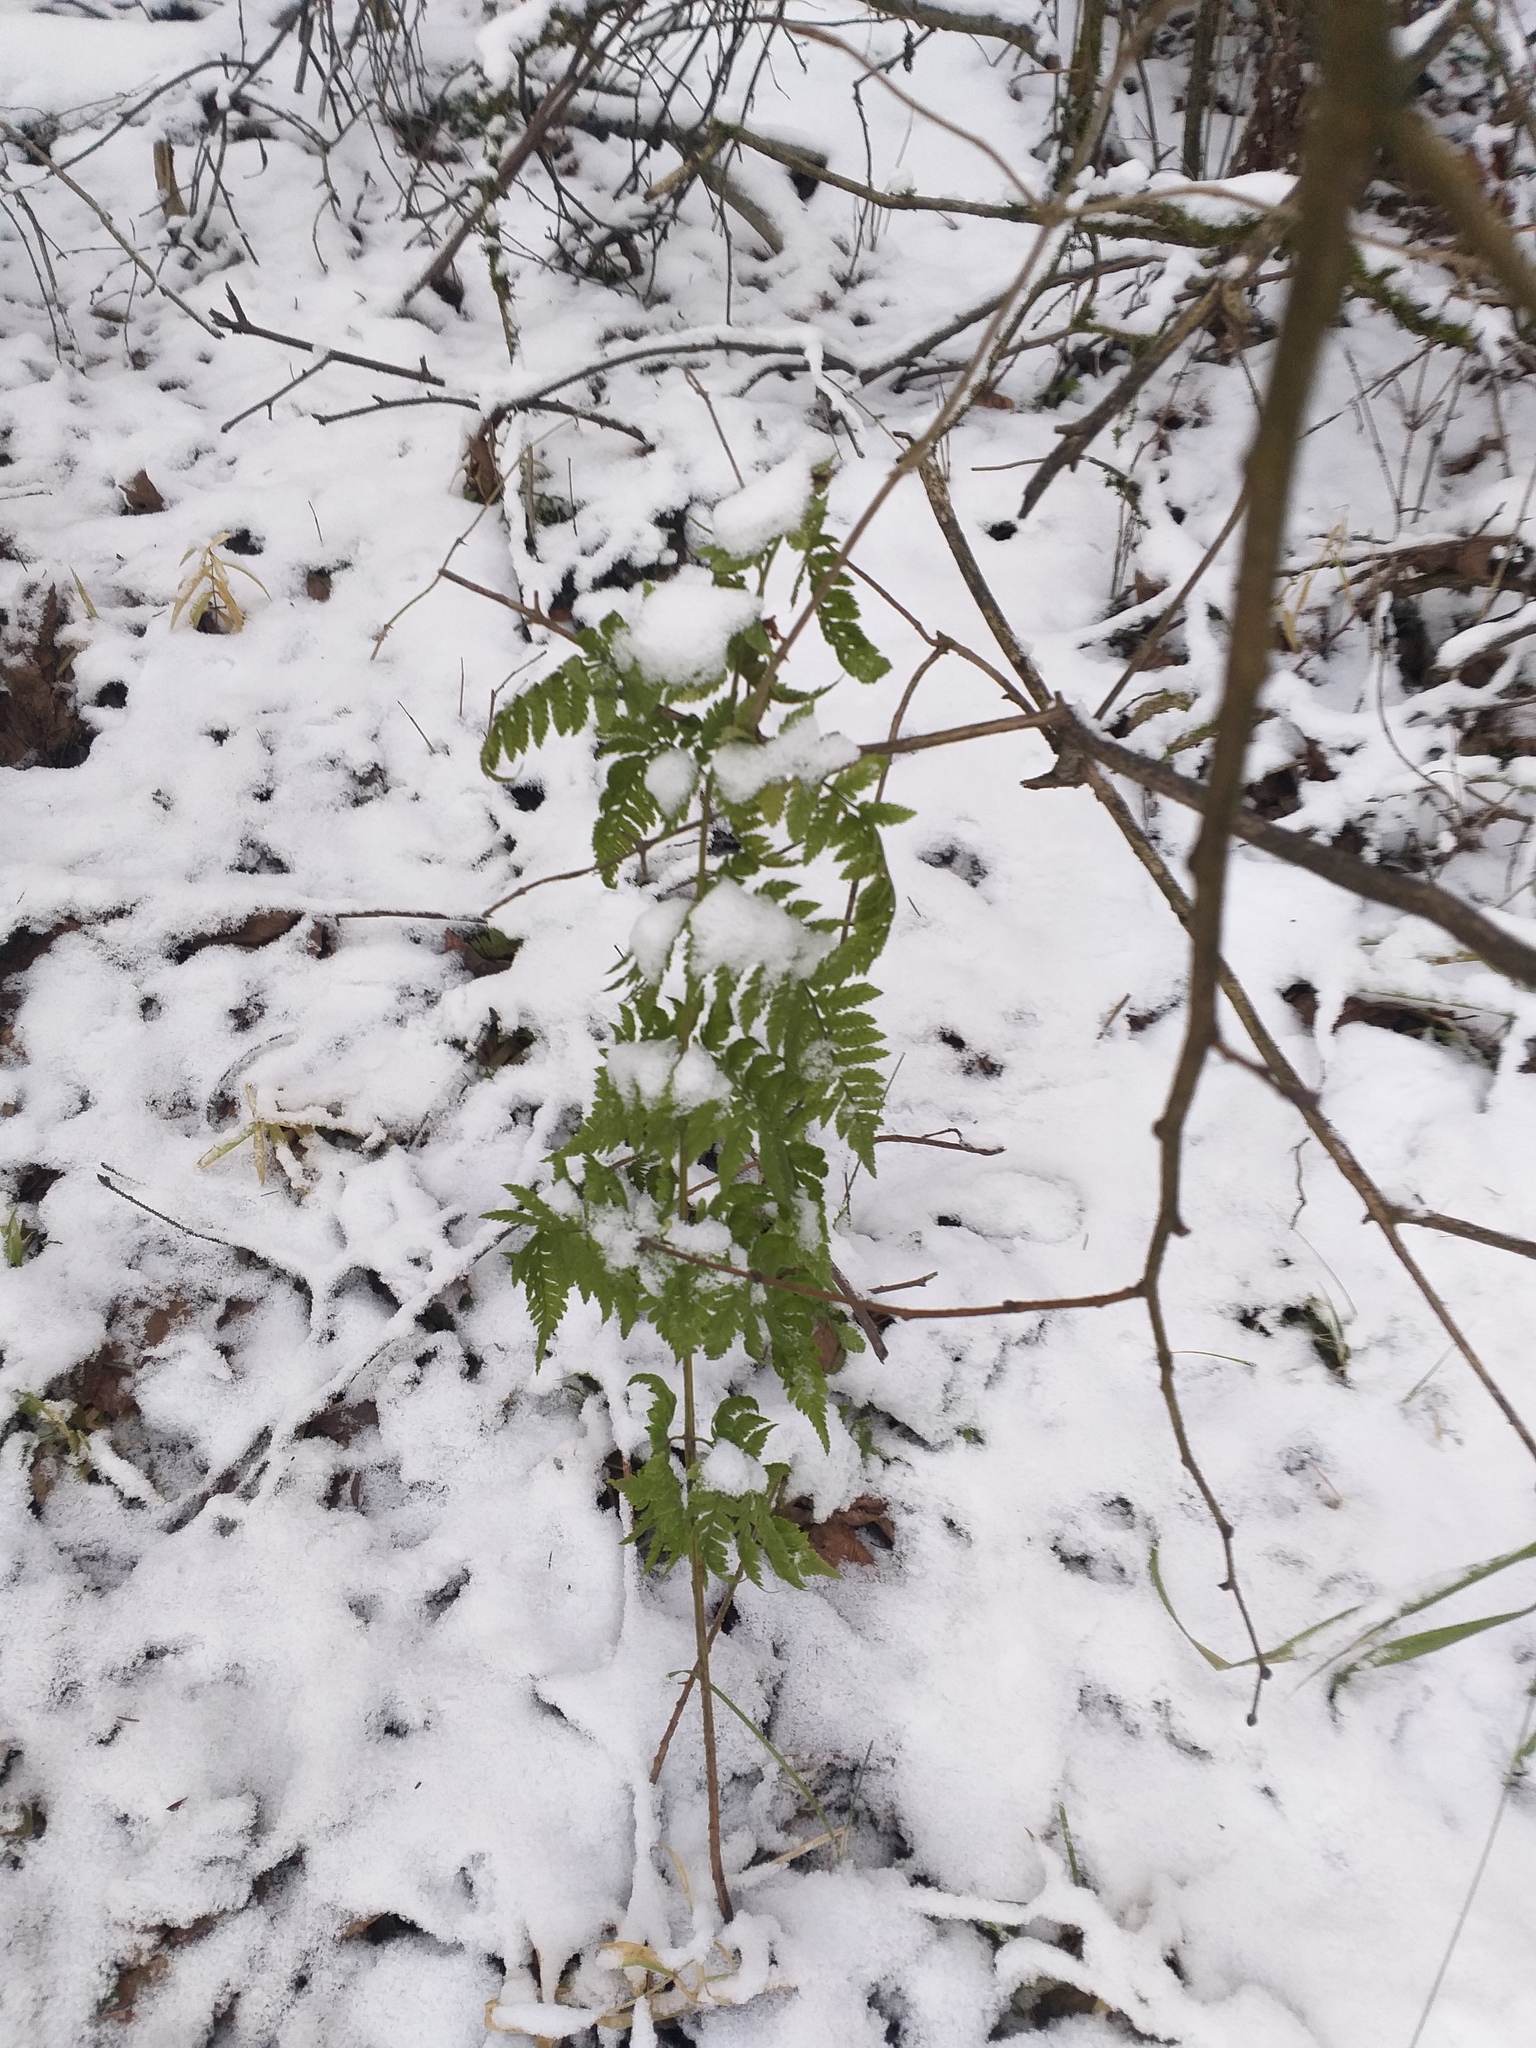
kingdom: Plantae
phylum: Tracheophyta
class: Polypodiopsida
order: Polypodiales
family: Dryopteridaceae
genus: Dryopteris
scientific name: Dryopteris carthusiana
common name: Narrow buckler-fern
